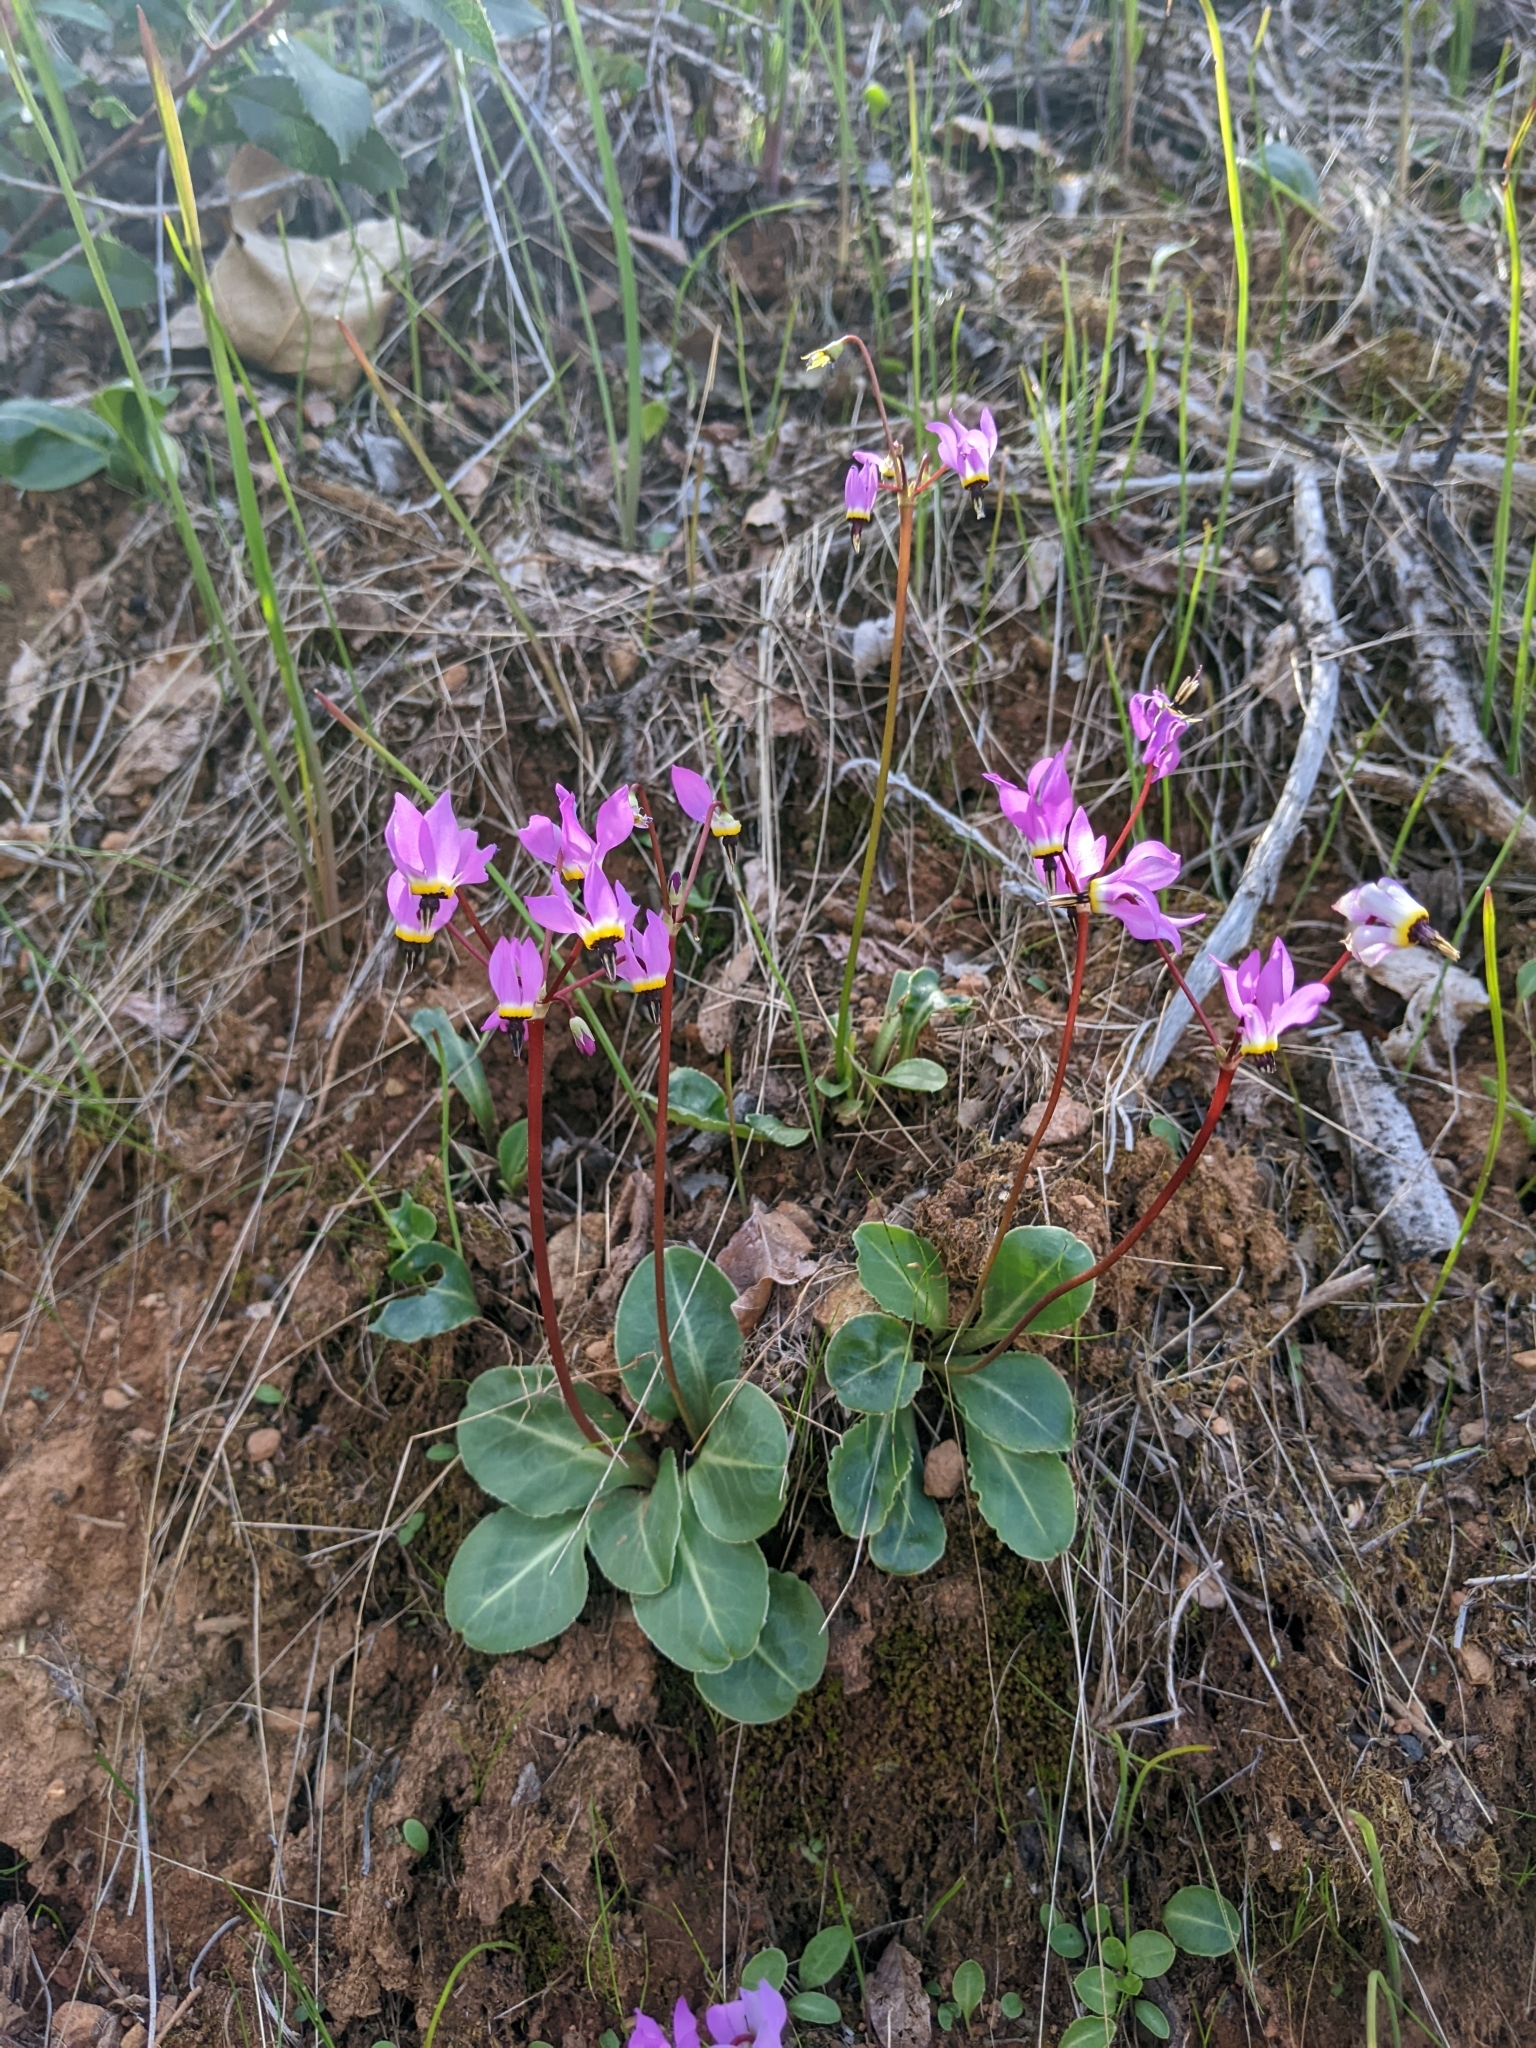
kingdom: Plantae
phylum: Tracheophyta
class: Magnoliopsida
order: Ericales
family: Primulaceae
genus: Dodecatheon
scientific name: Dodecatheon hendersonii
